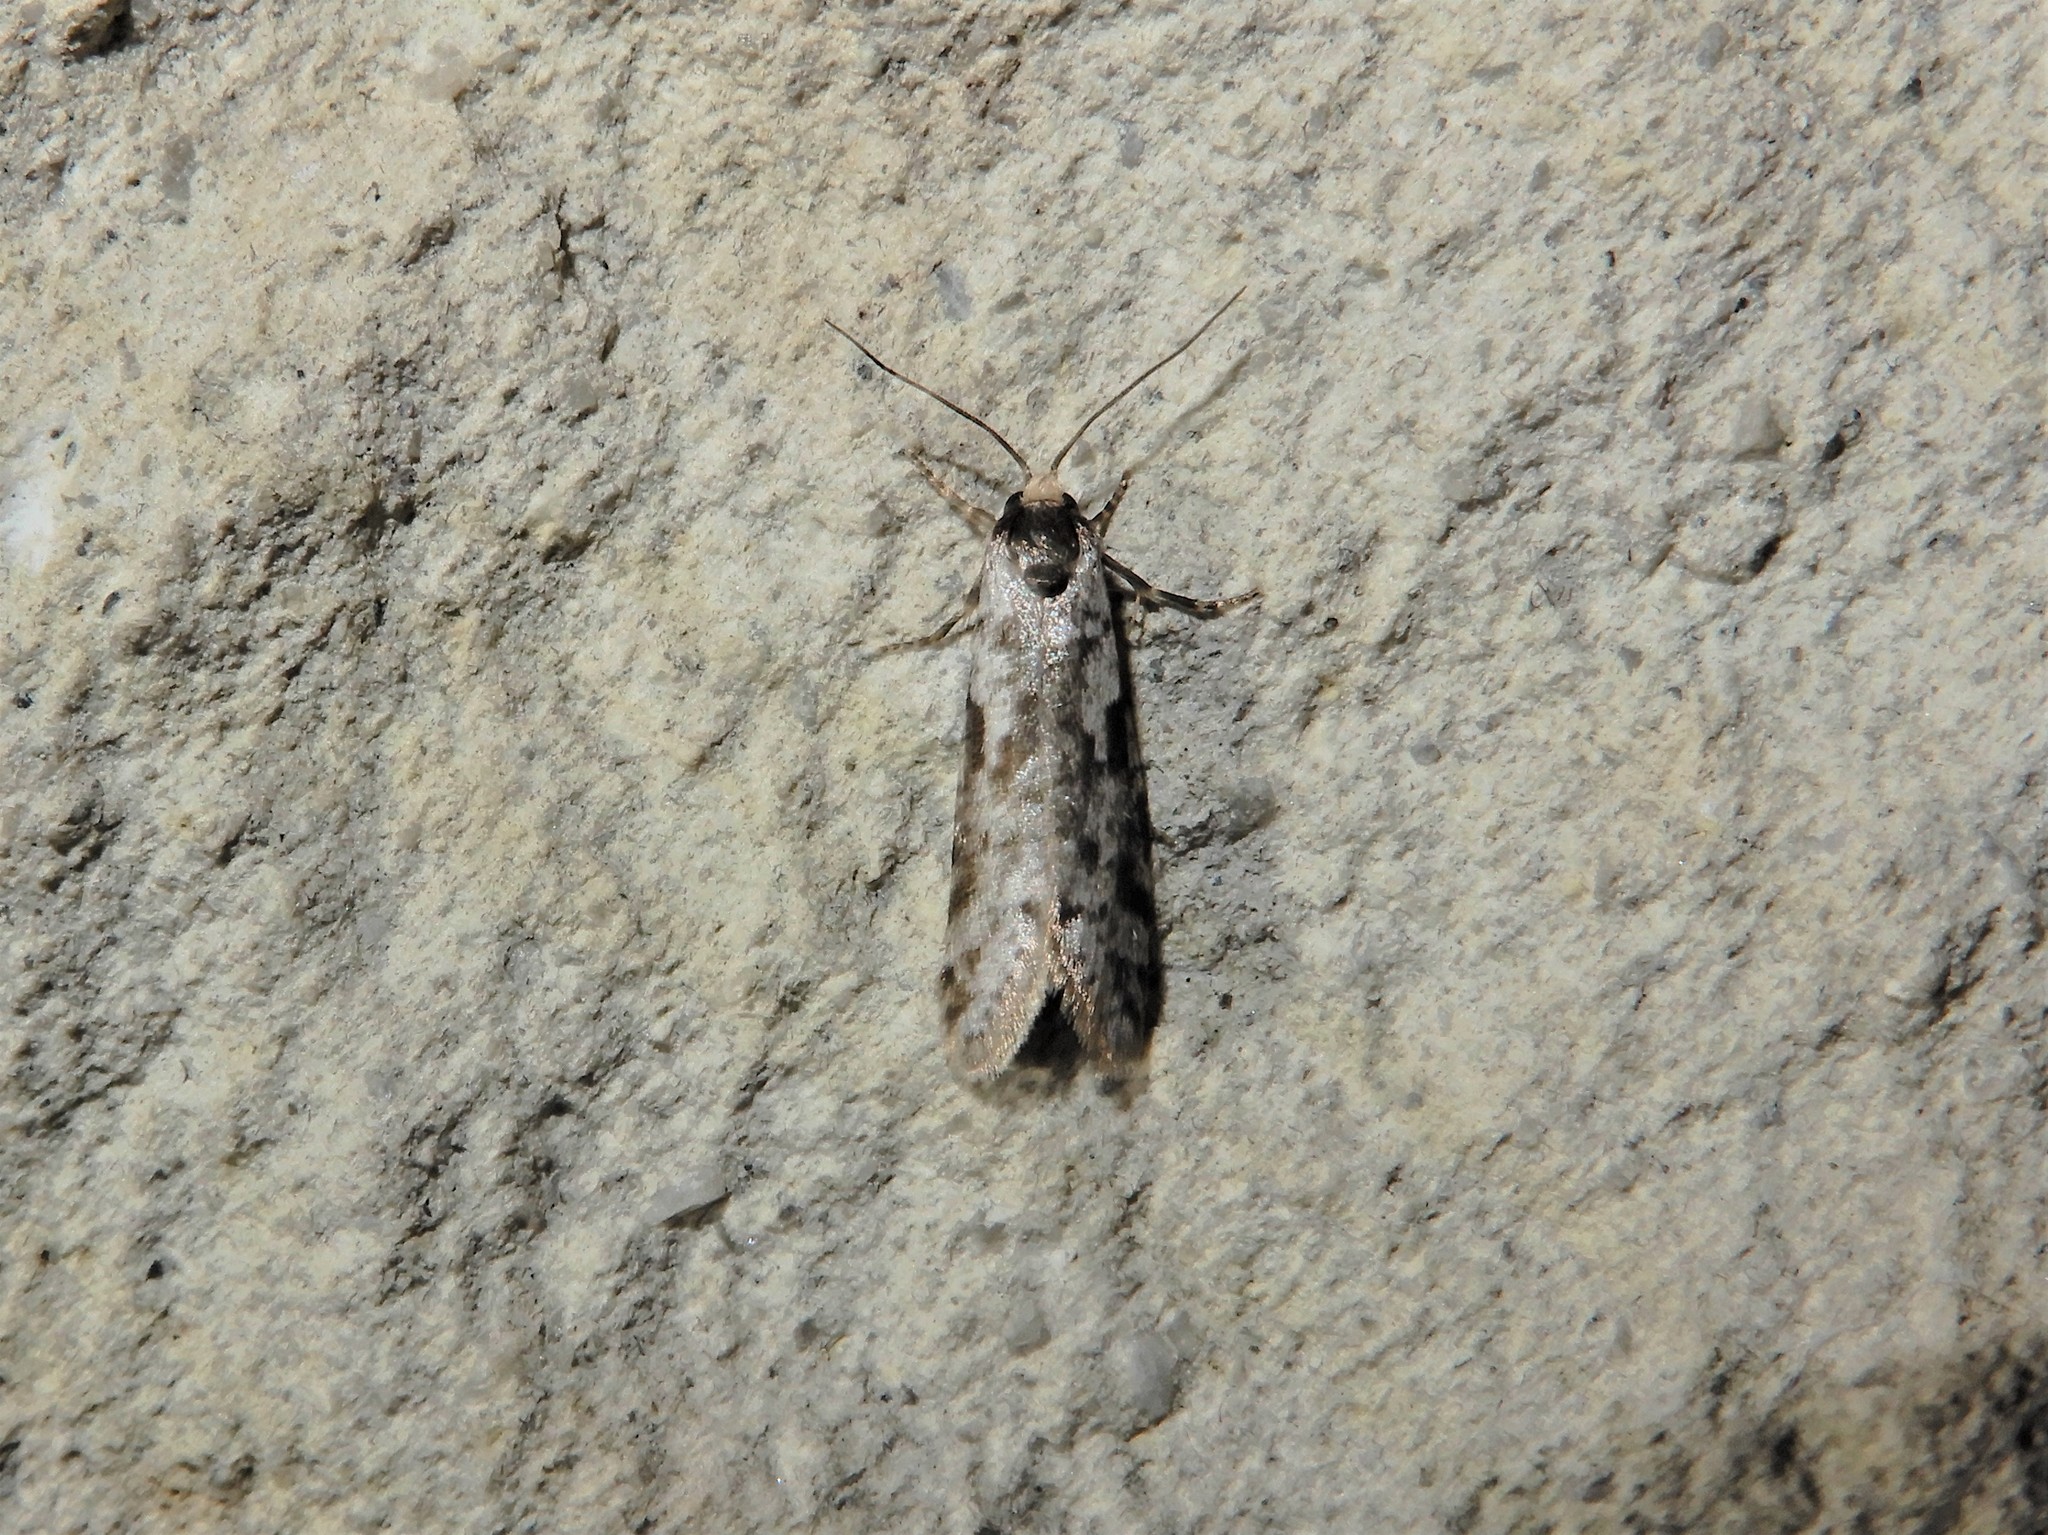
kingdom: Animalia
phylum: Arthropoda
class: Insecta
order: Lepidoptera
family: Psychidae
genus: Lepidoscia
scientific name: Lepidoscia protorna
